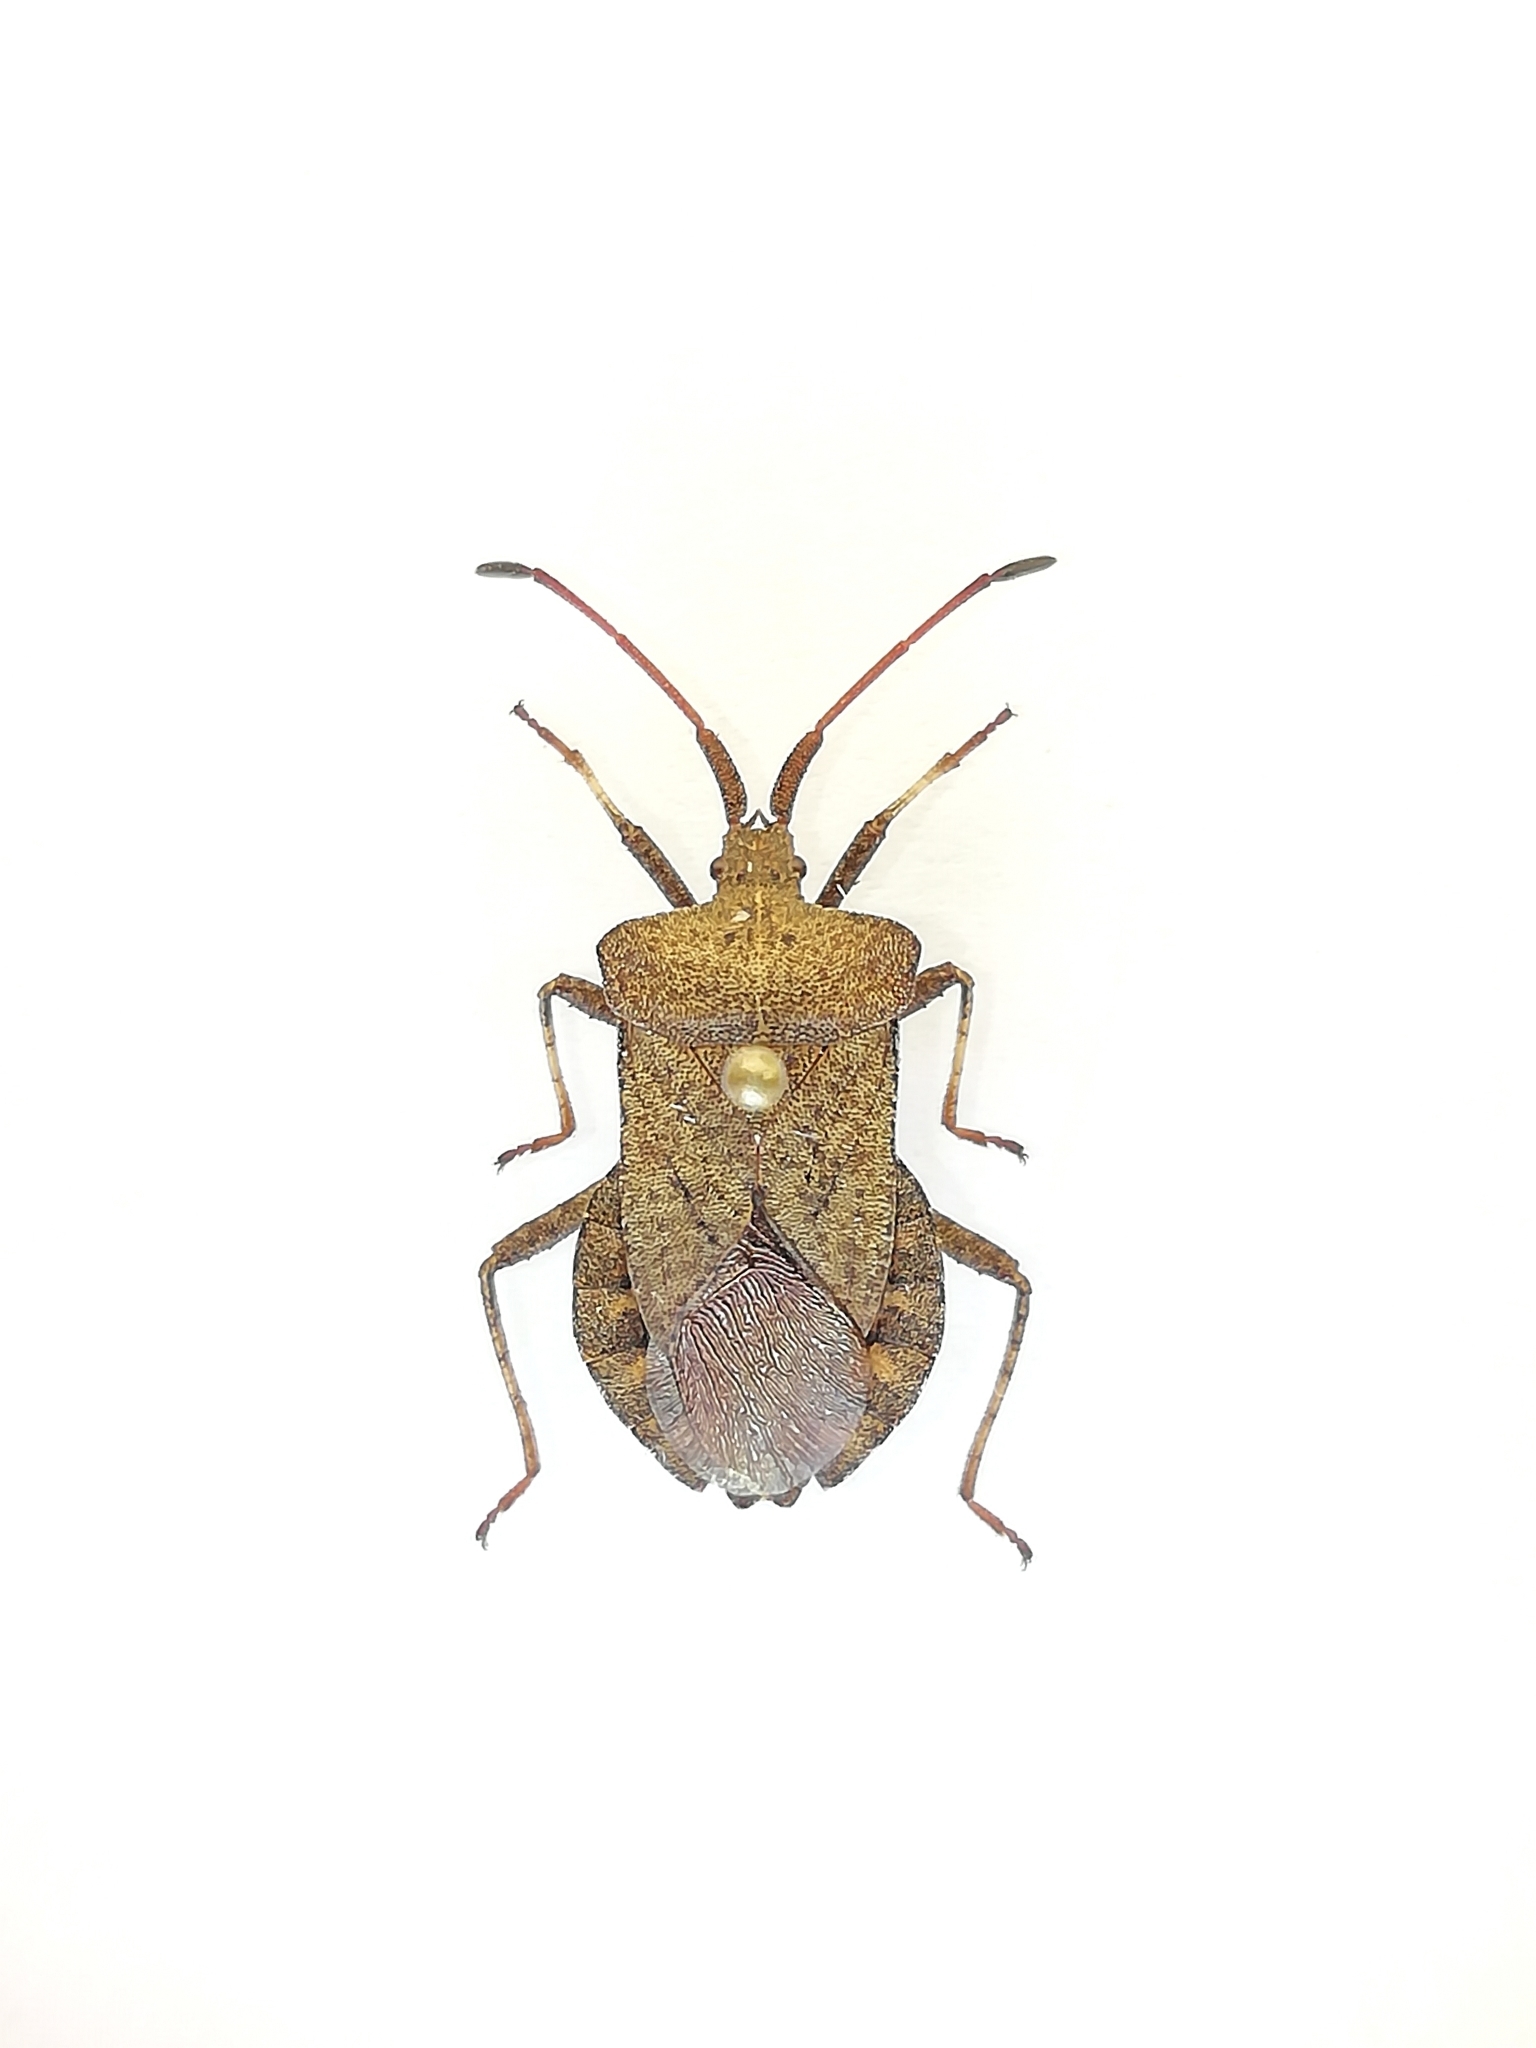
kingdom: Animalia
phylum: Arthropoda
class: Insecta
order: Hemiptera
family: Coreidae
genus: Coreus
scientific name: Coreus marginatus
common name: Dock bug
